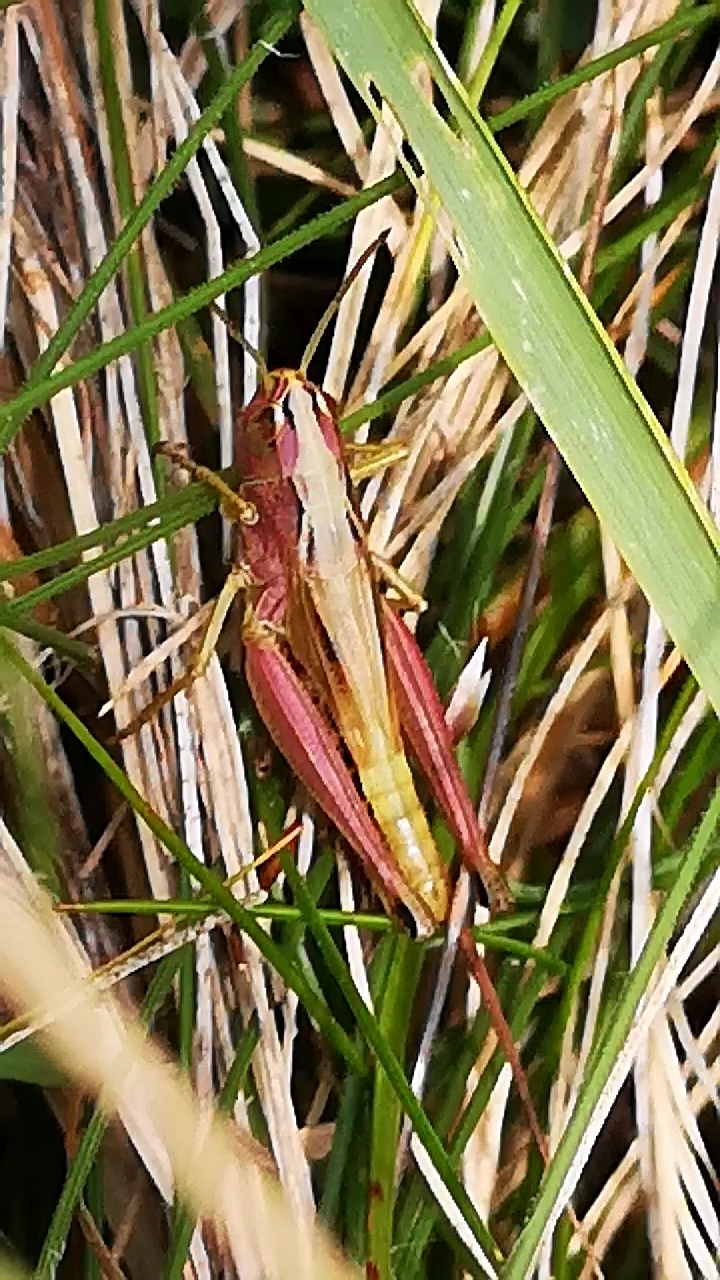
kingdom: Animalia
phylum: Arthropoda
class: Insecta
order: Orthoptera
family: Acrididae
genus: Pseudochorthippus
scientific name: Pseudochorthippus parallelus
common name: Meadow grasshopper
